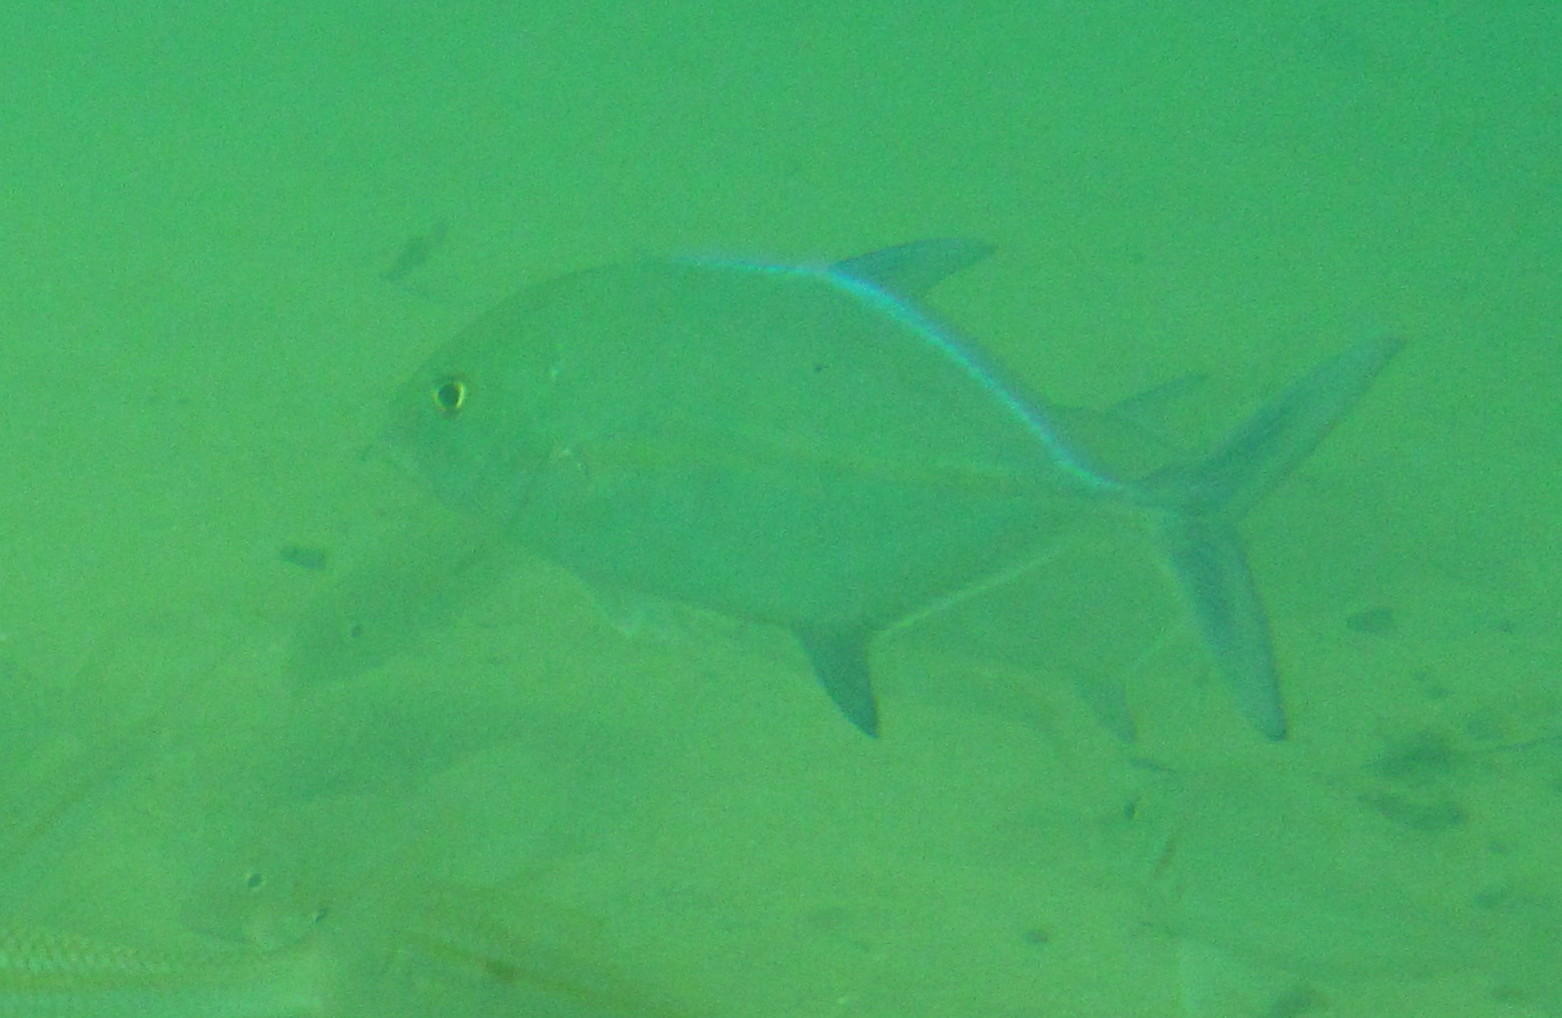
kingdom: Animalia
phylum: Chordata
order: Perciformes
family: Carangidae
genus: Caranx
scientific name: Caranx melampygus
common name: Bluefin trevally
